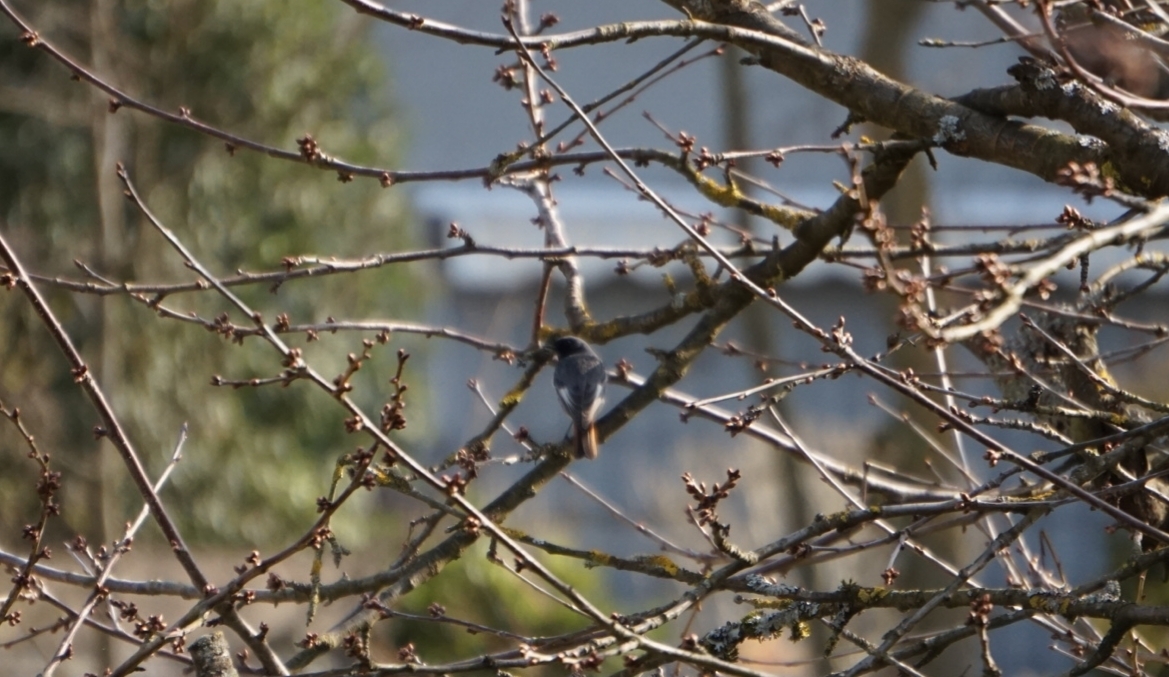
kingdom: Animalia
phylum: Chordata
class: Aves
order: Passeriformes
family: Muscicapidae
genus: Phoenicurus
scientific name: Phoenicurus ochruros
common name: Black redstart
